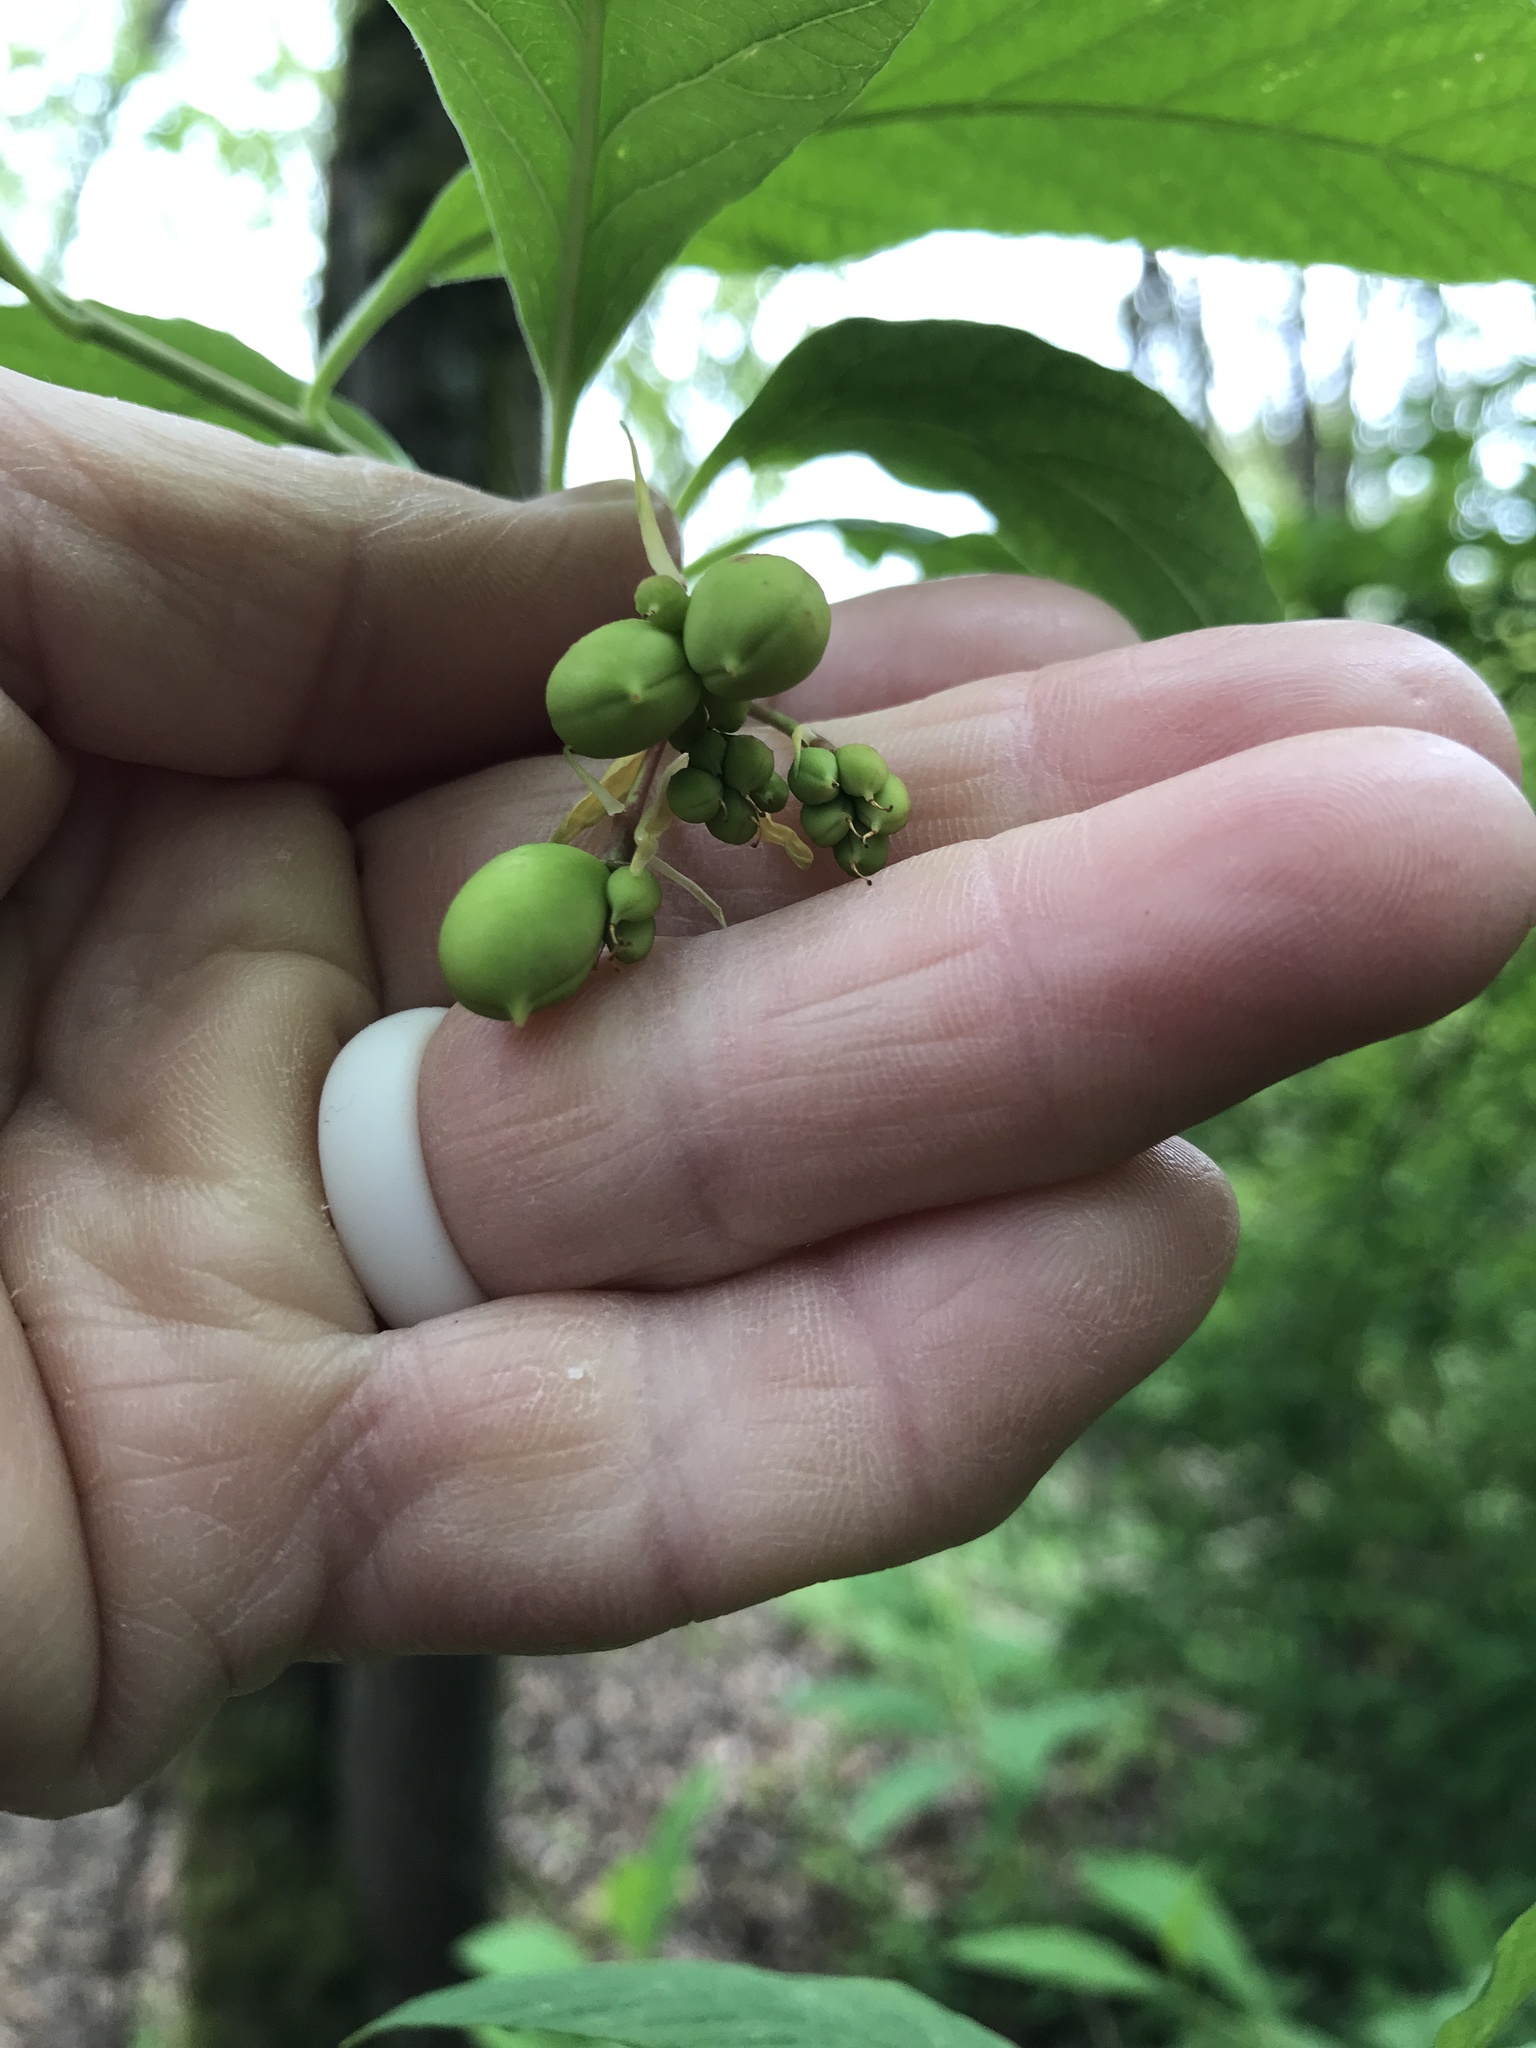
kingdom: Plantae
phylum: Tracheophyta
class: Magnoliopsida
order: Rosales
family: Rosaceae
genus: Oemleria
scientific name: Oemleria cerasiformis
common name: Osoberry
